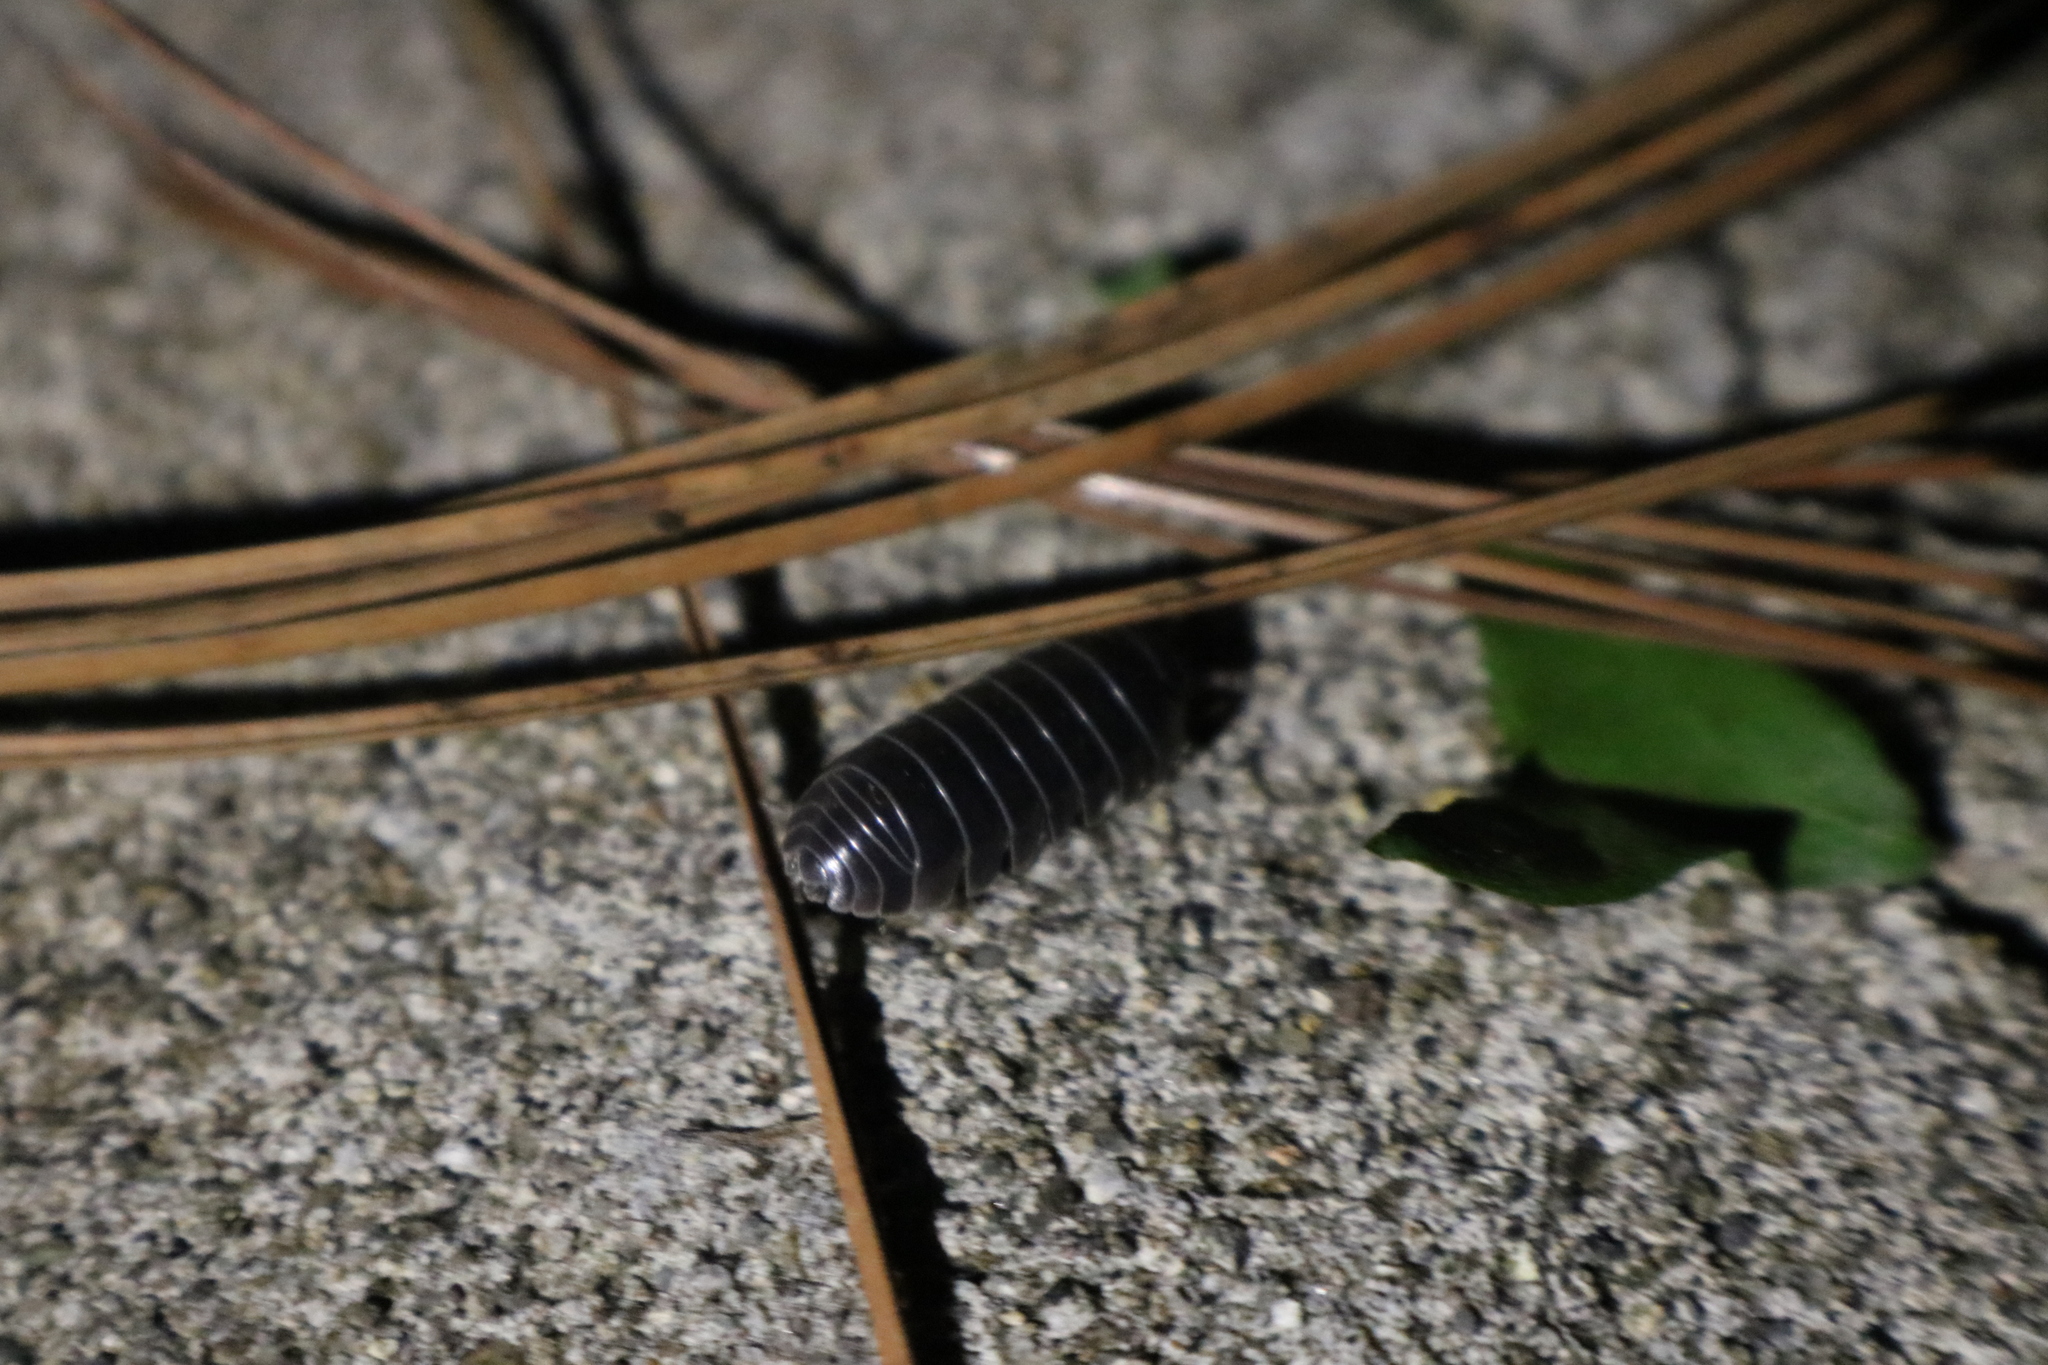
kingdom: Animalia
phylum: Arthropoda
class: Malacostraca
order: Isopoda
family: Armadillidiidae
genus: Armadillidium
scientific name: Armadillidium vulgare
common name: Common pill woodlouse
